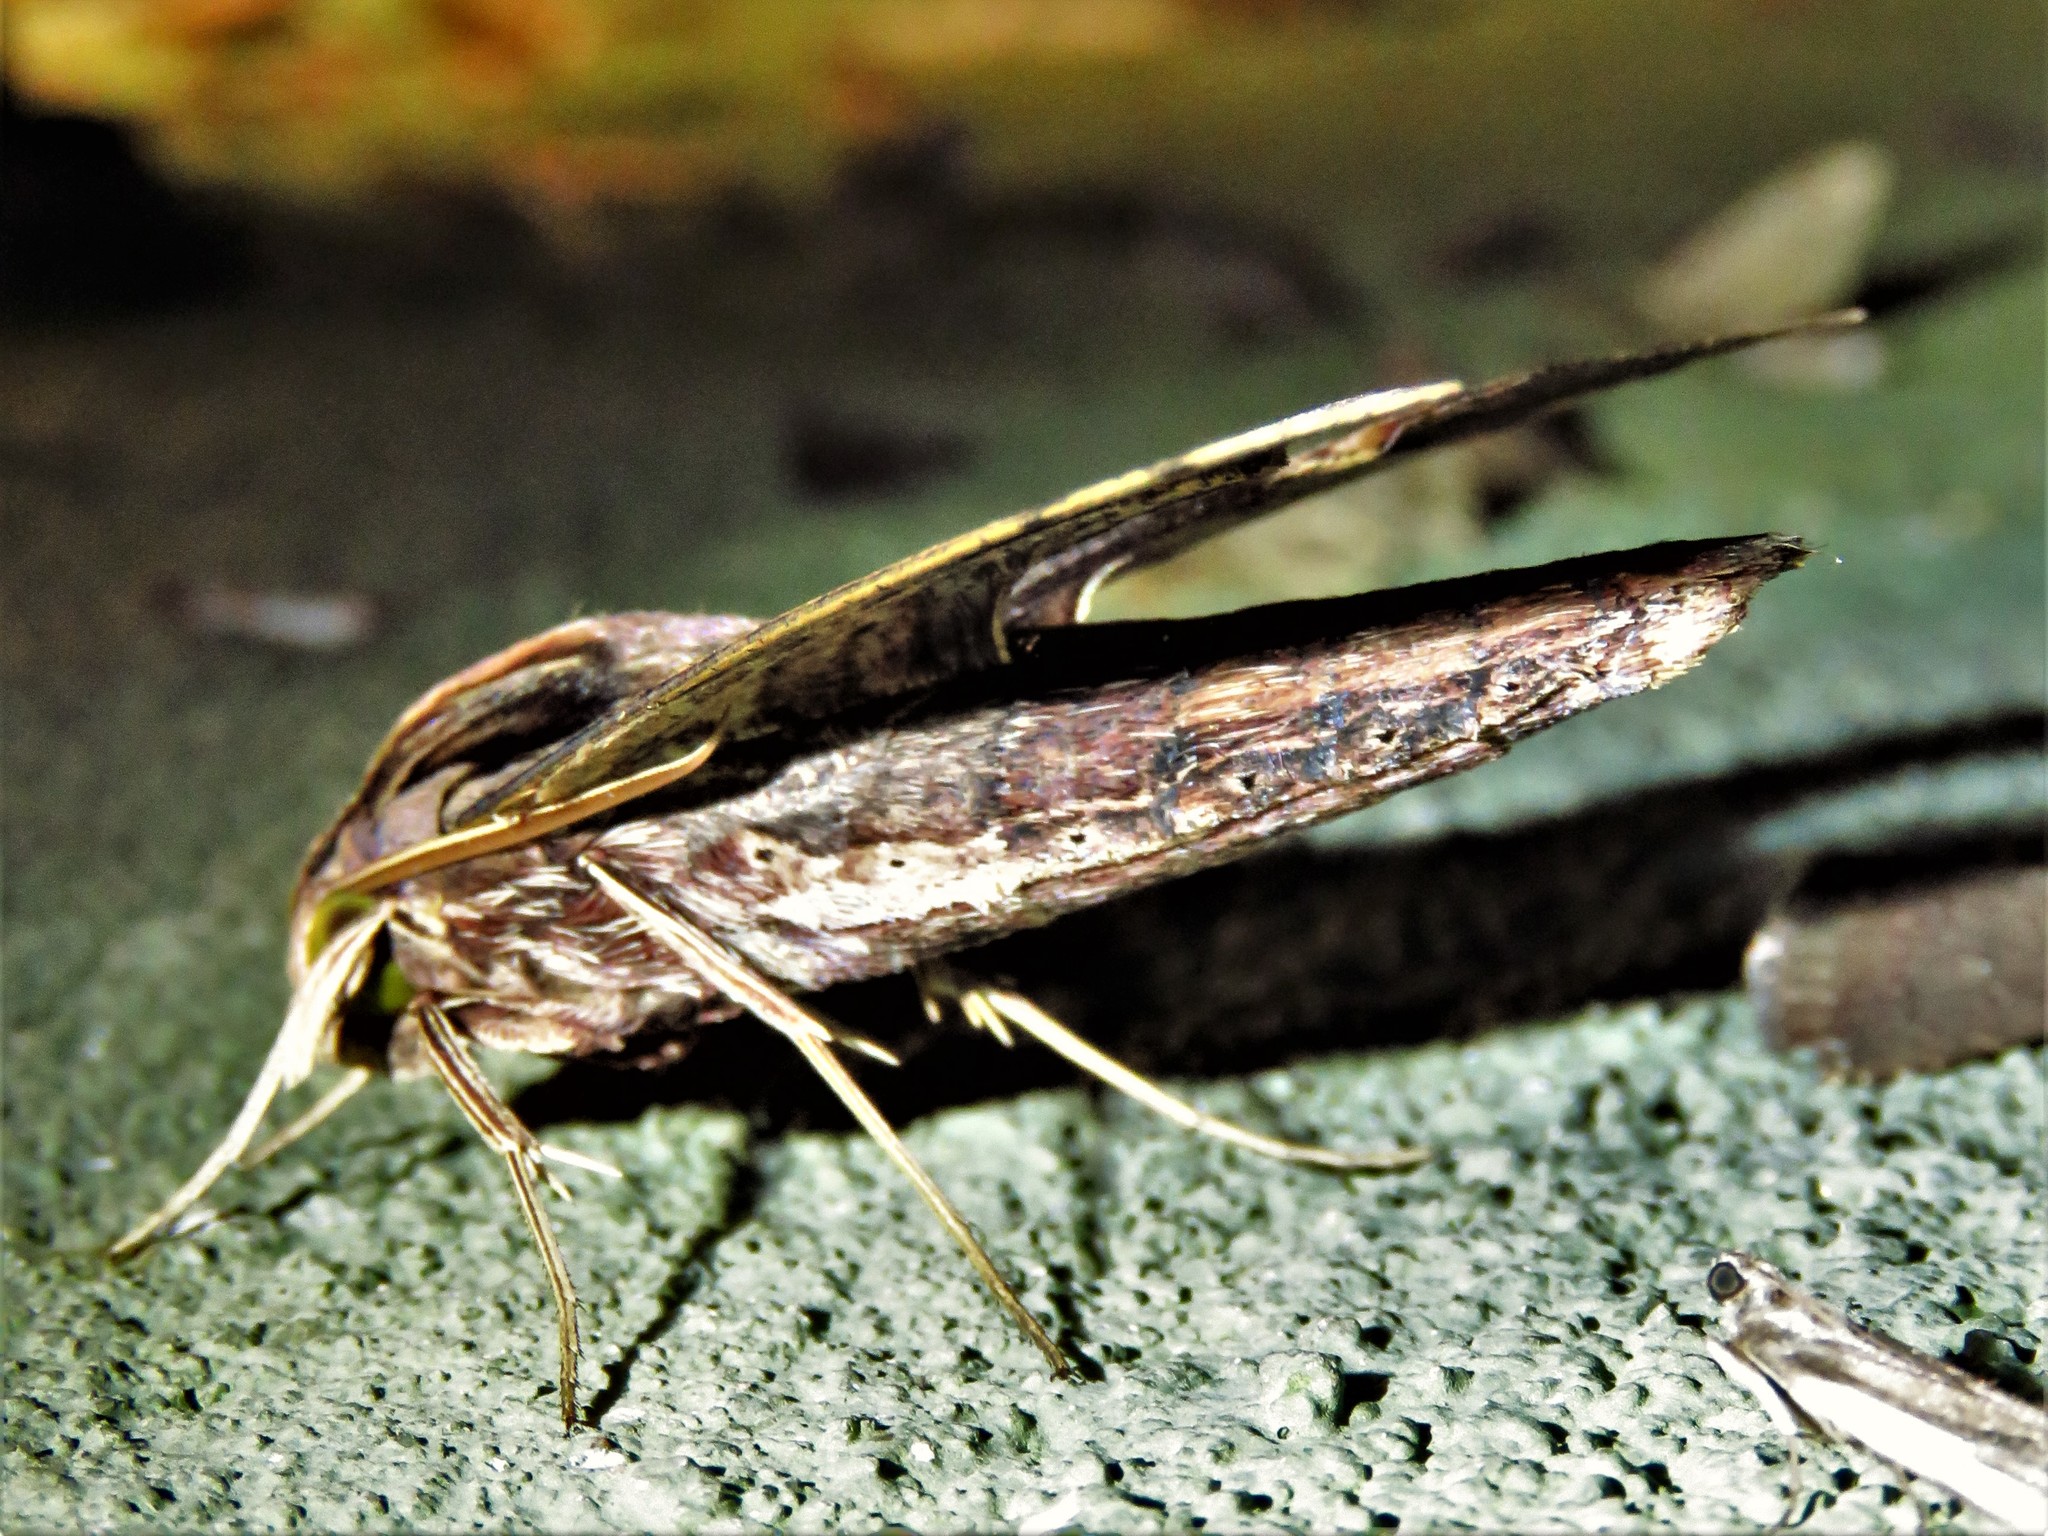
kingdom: Animalia
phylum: Arthropoda
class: Insecta
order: Lepidoptera
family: Sphingidae
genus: Xylophanes
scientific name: Xylophanes ceratomioides
